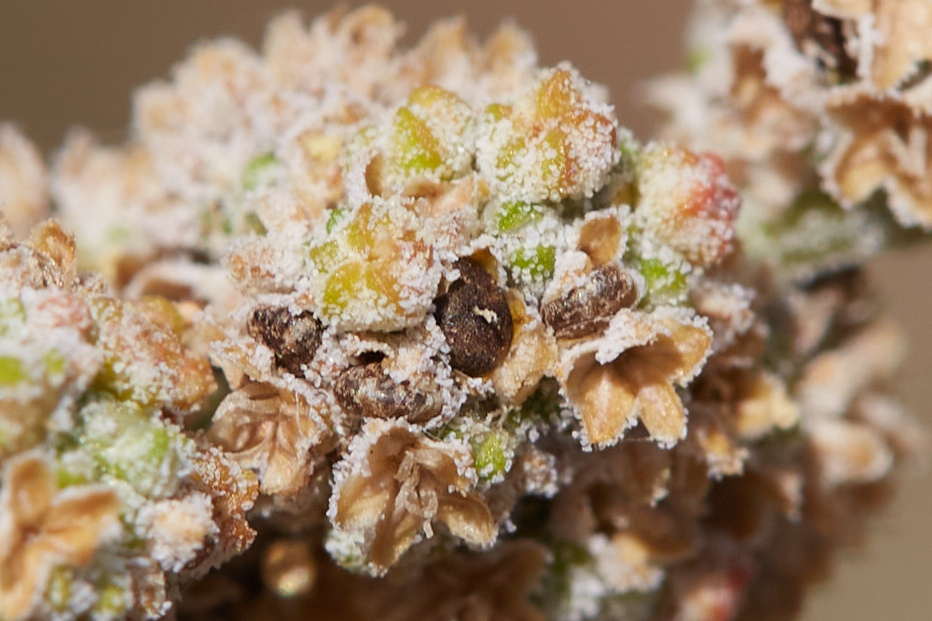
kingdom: Plantae
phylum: Tracheophyta
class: Magnoliopsida
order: Caryophyllales
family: Amaranthaceae
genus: Chenopodium
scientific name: Chenopodium pratericola
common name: Desert goosefoot
